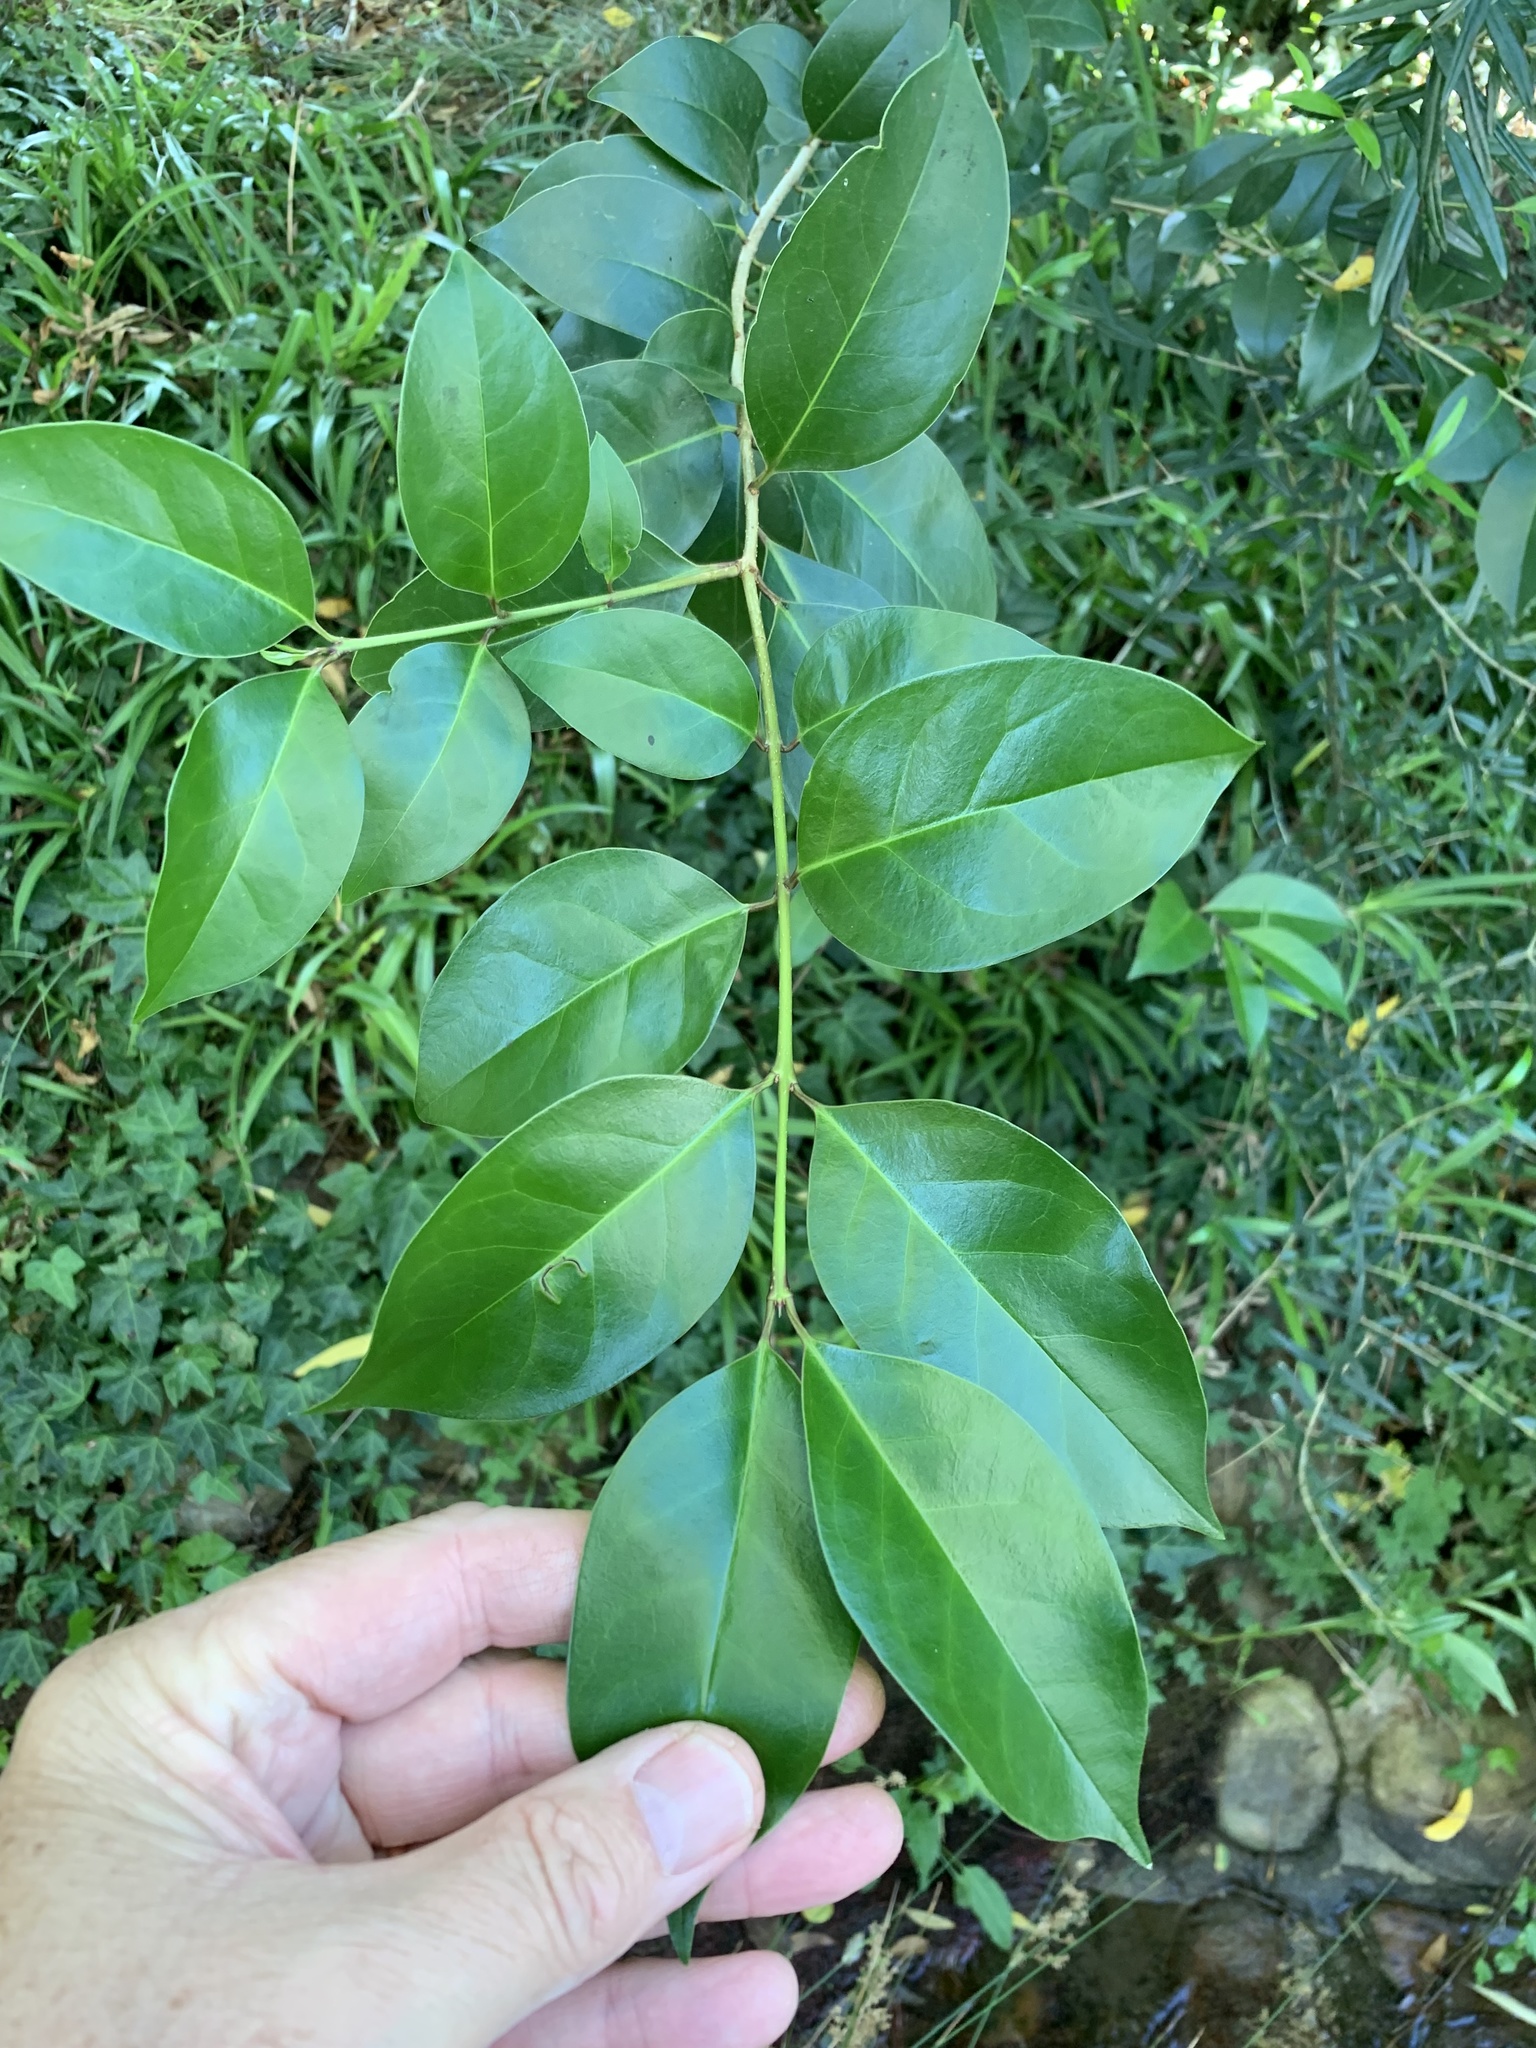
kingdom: Plantae
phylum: Tracheophyta
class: Magnoliopsida
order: Lamiales
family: Oleaceae
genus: Ligustrum
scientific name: Ligustrum lucidum
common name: Glossy privet
